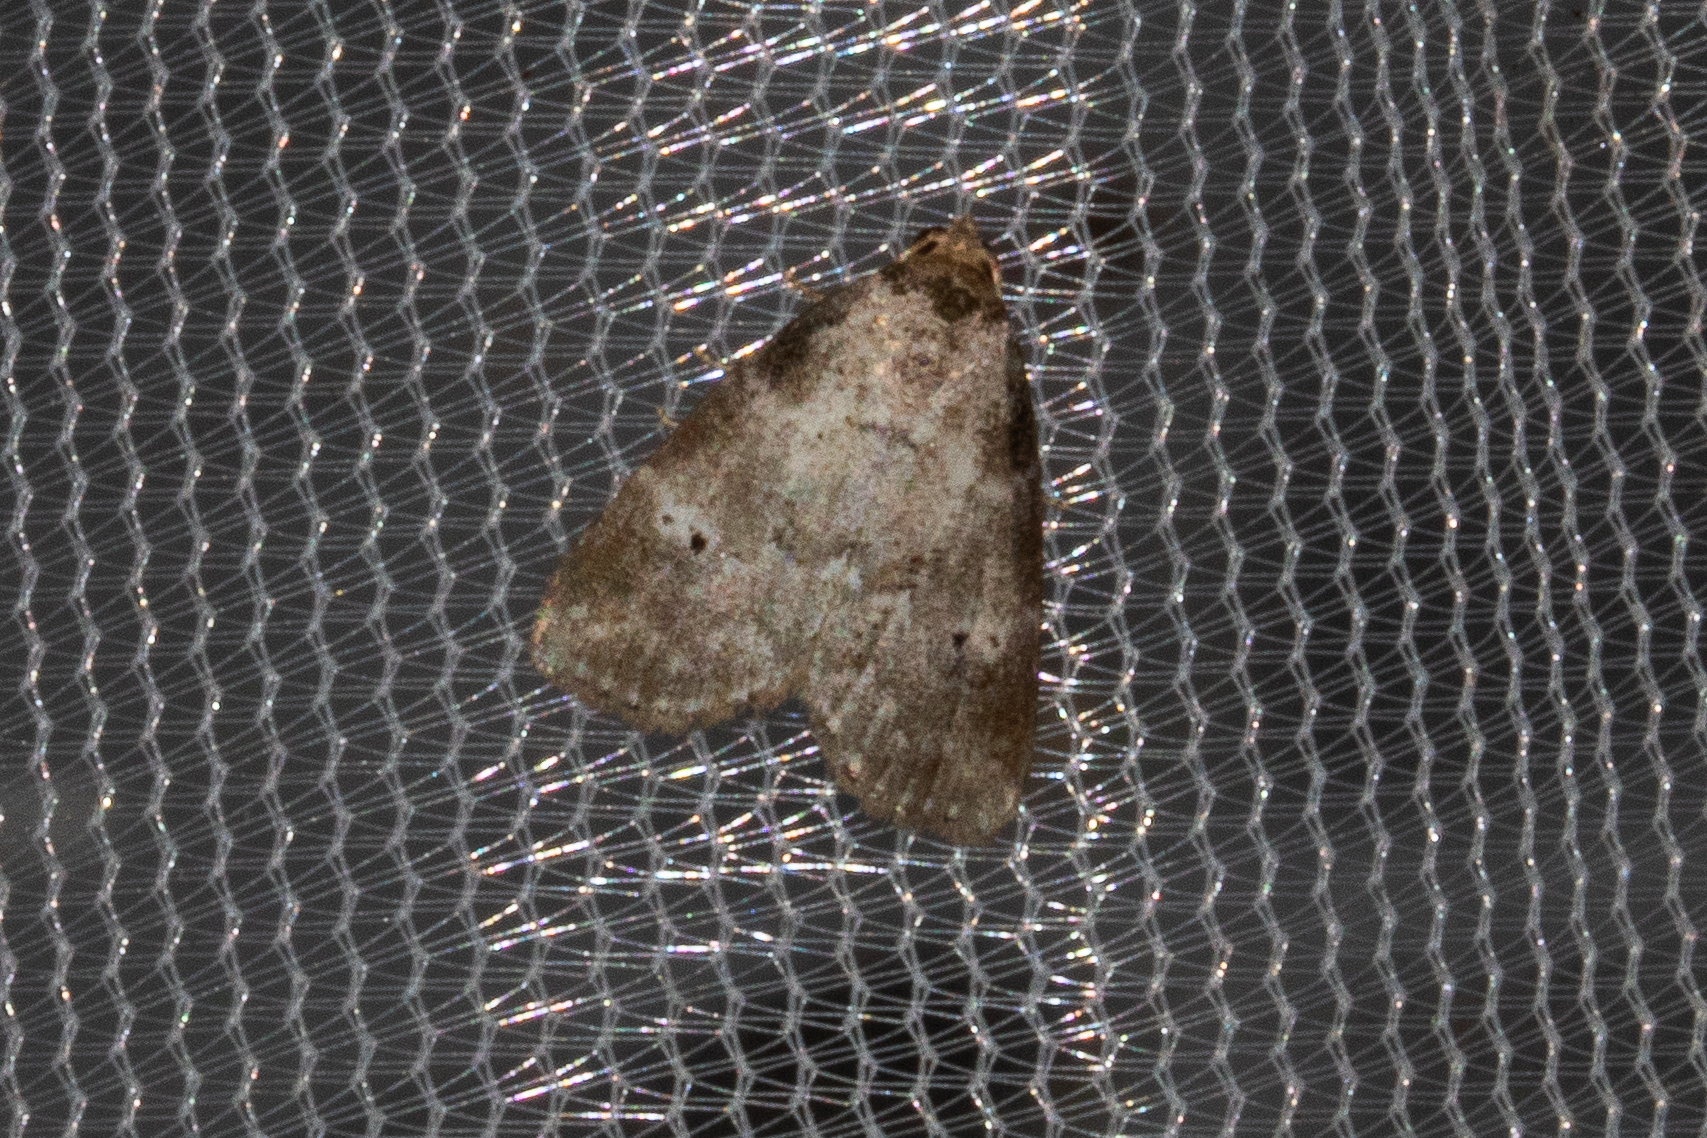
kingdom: Animalia
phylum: Arthropoda
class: Insecta
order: Lepidoptera
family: Erebidae
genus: Hyperstrotia
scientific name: Hyperstrotia pervertens
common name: Dotted graylet
